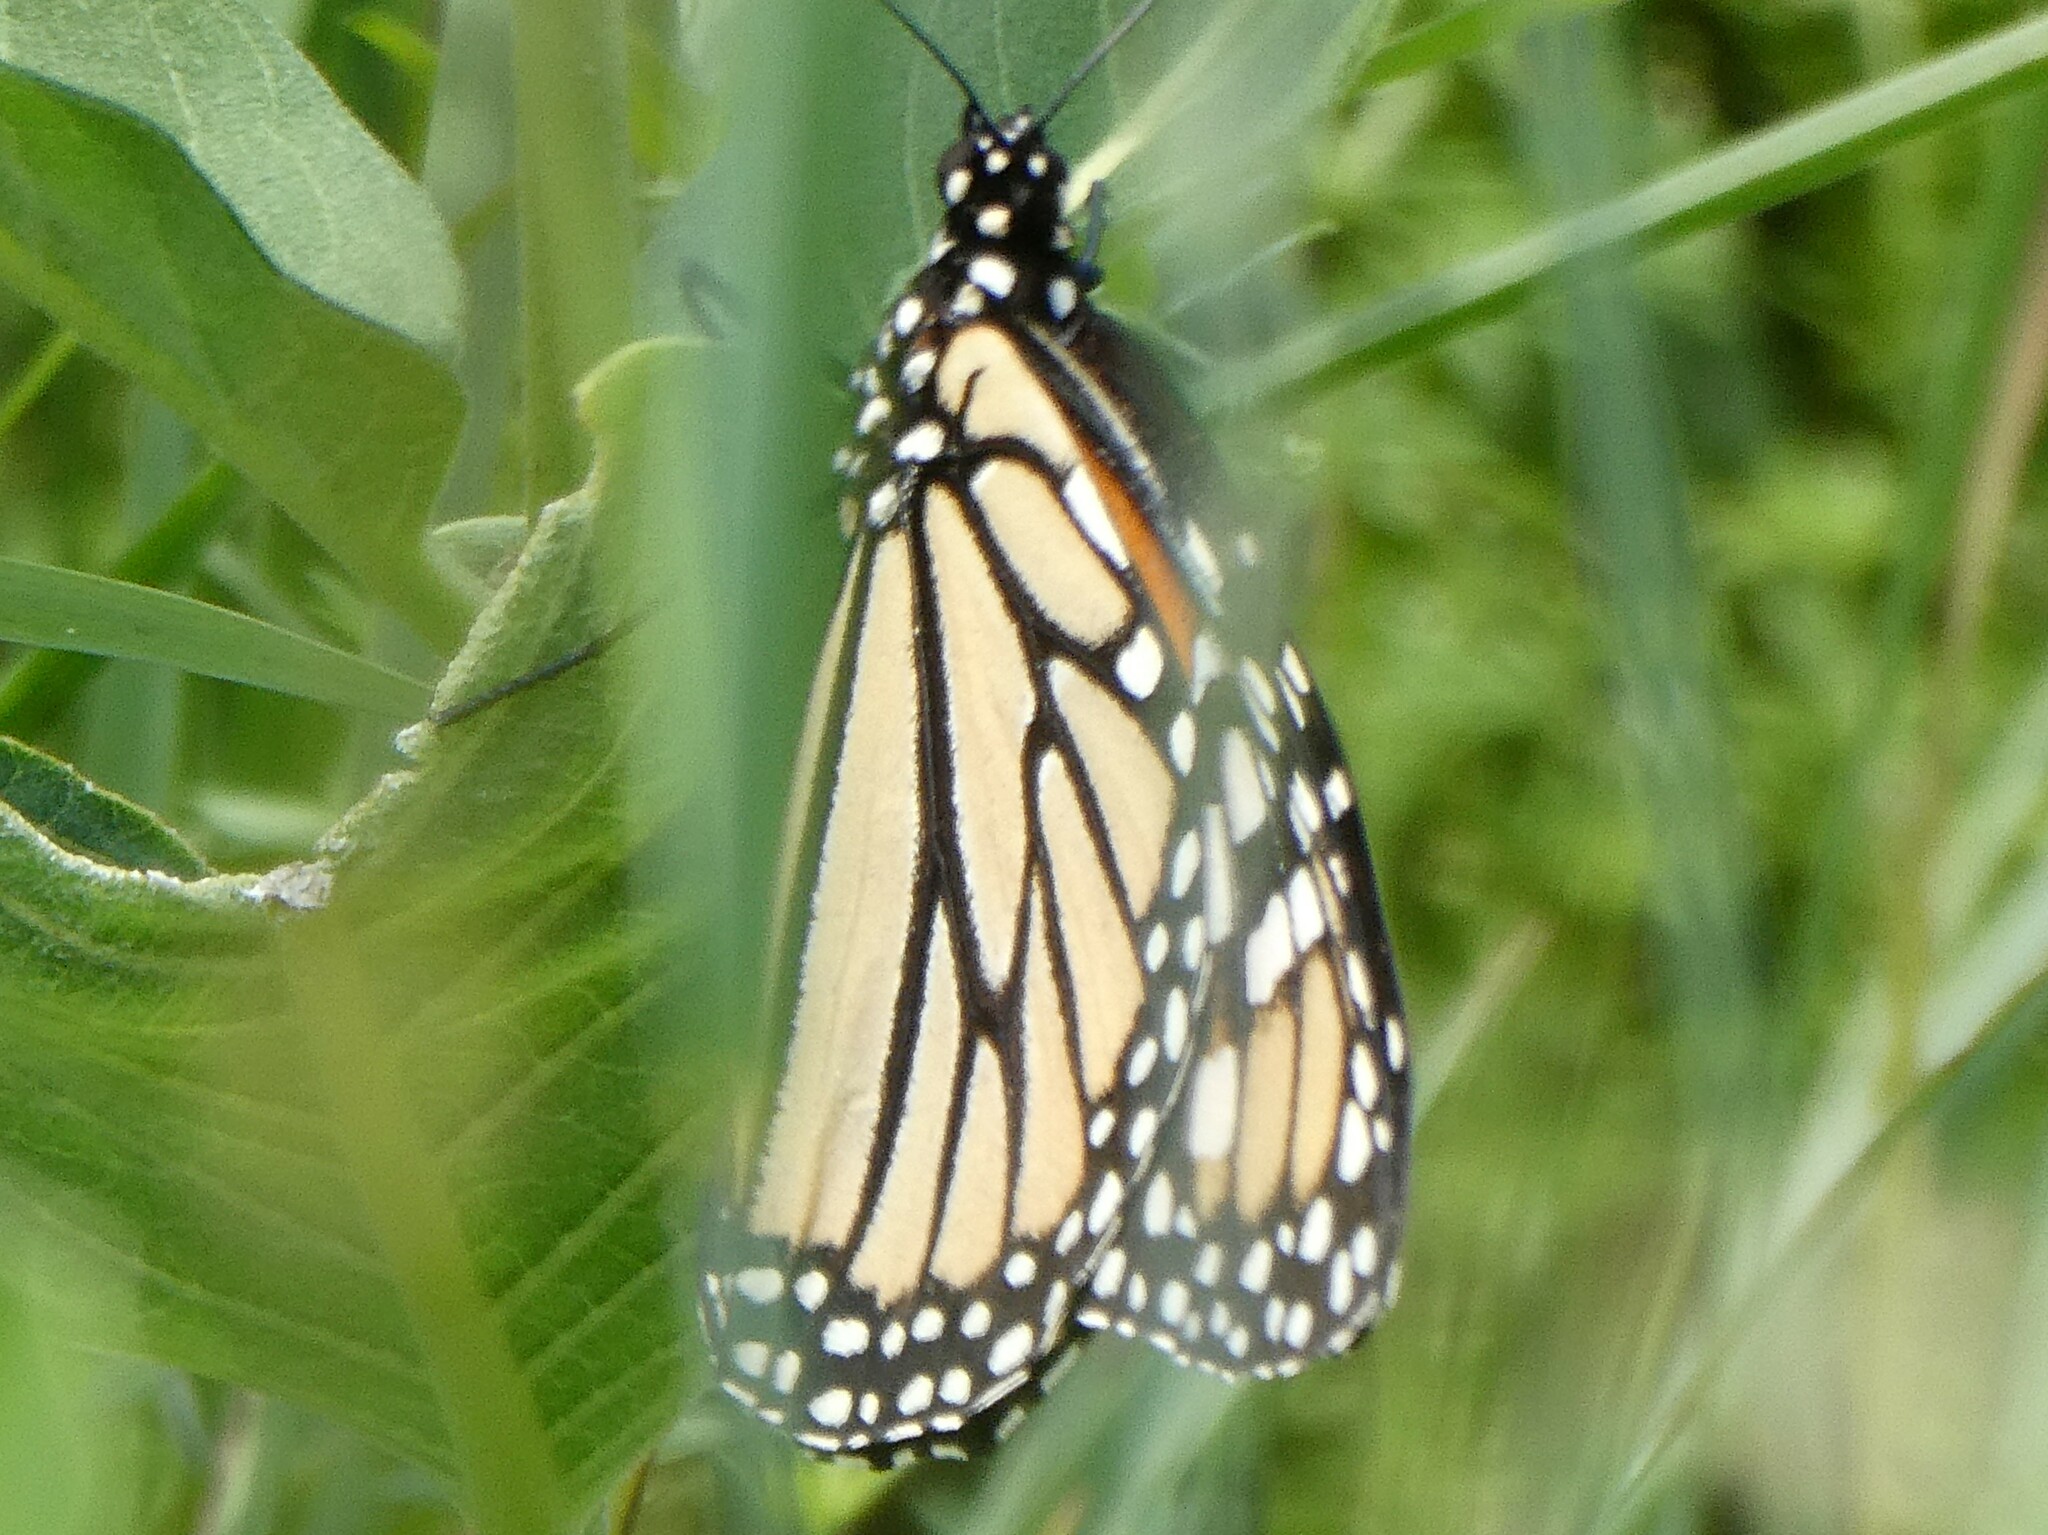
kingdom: Animalia
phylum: Arthropoda
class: Insecta
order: Lepidoptera
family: Nymphalidae
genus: Danaus
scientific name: Danaus plexippus
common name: Monarch
